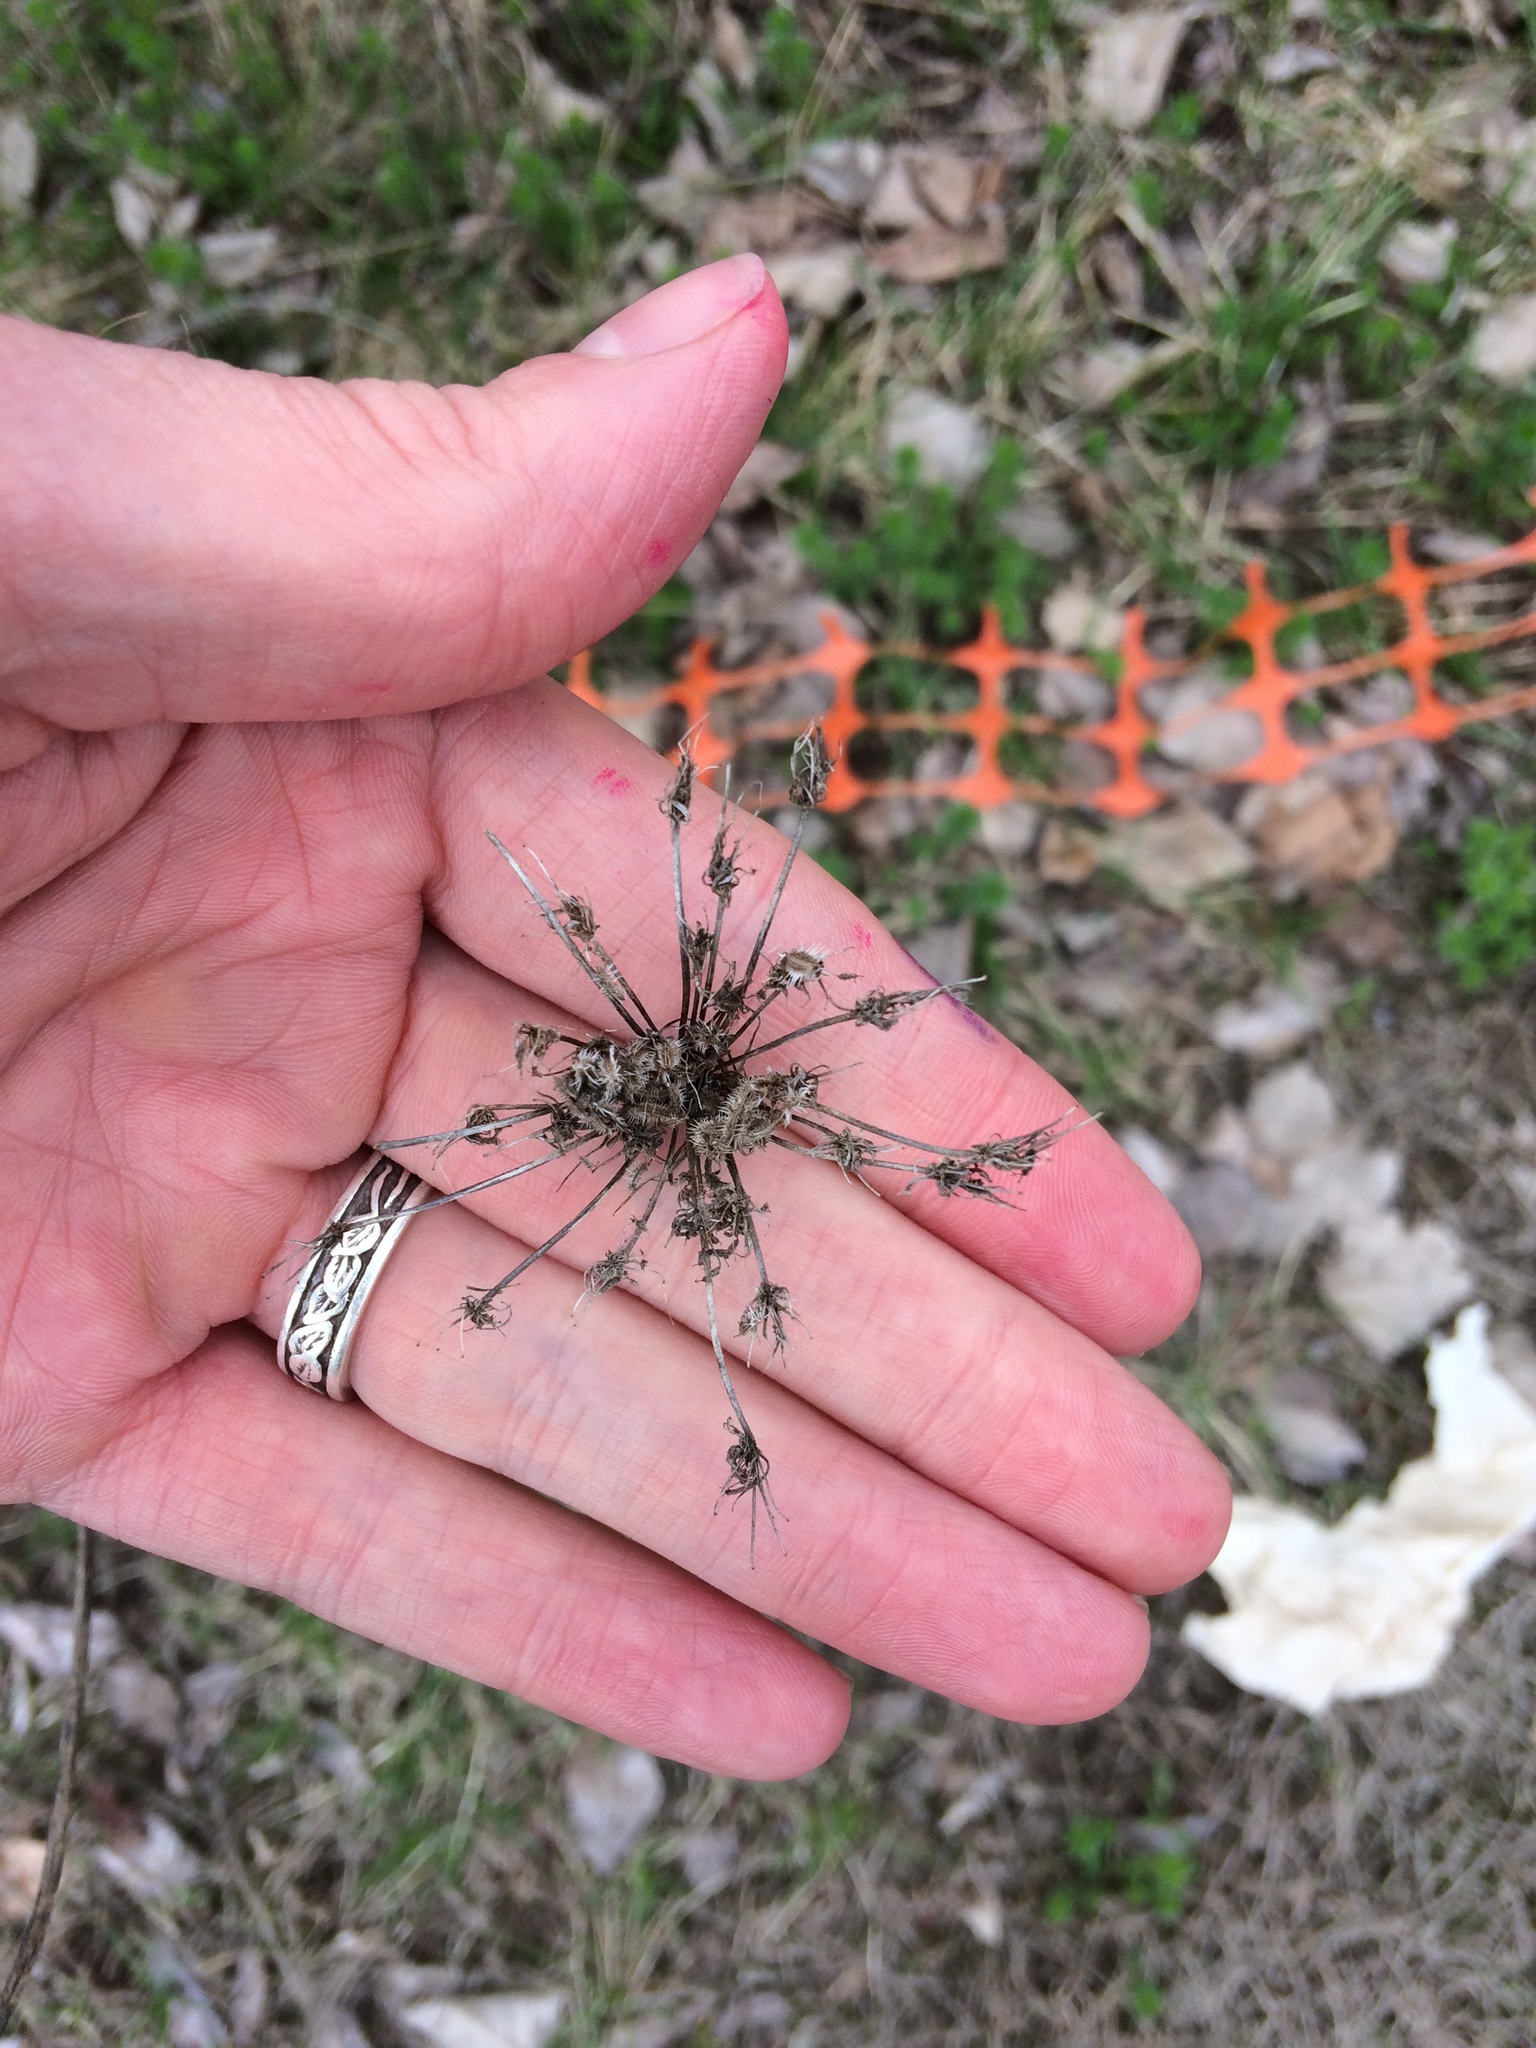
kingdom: Plantae
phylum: Tracheophyta
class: Magnoliopsida
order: Apiales
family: Apiaceae
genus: Daucus
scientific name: Daucus carota
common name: Wild carrot
